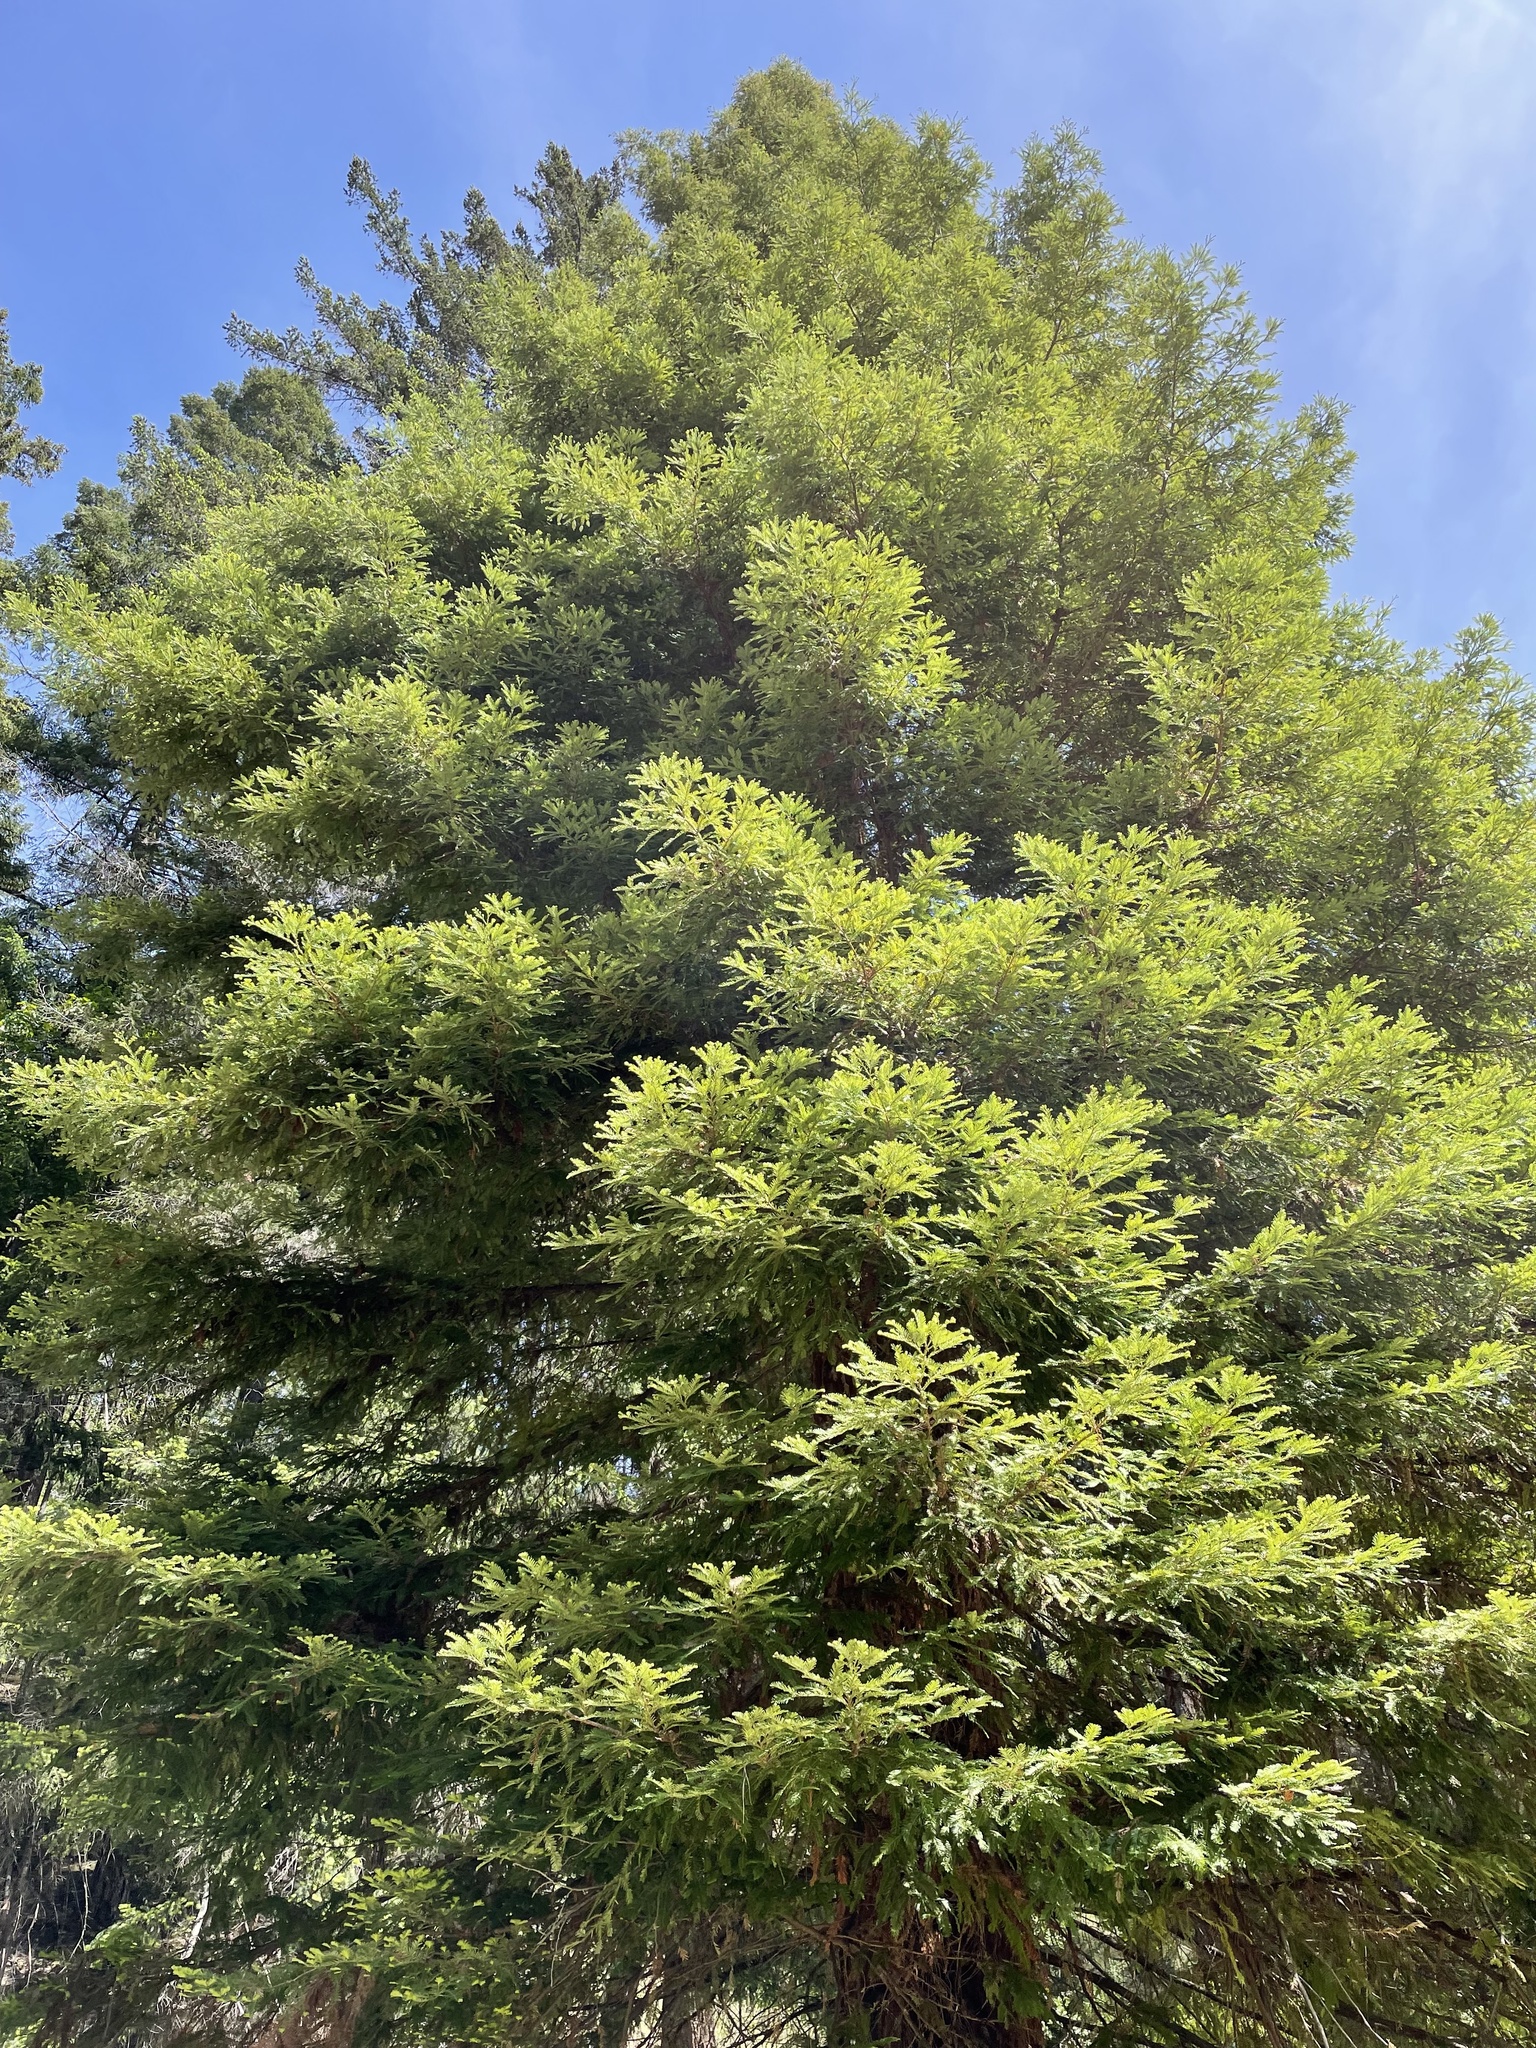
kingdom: Plantae
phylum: Tracheophyta
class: Pinopsida
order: Pinales
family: Cupressaceae
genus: Sequoia
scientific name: Sequoia sempervirens
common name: Coast redwood
